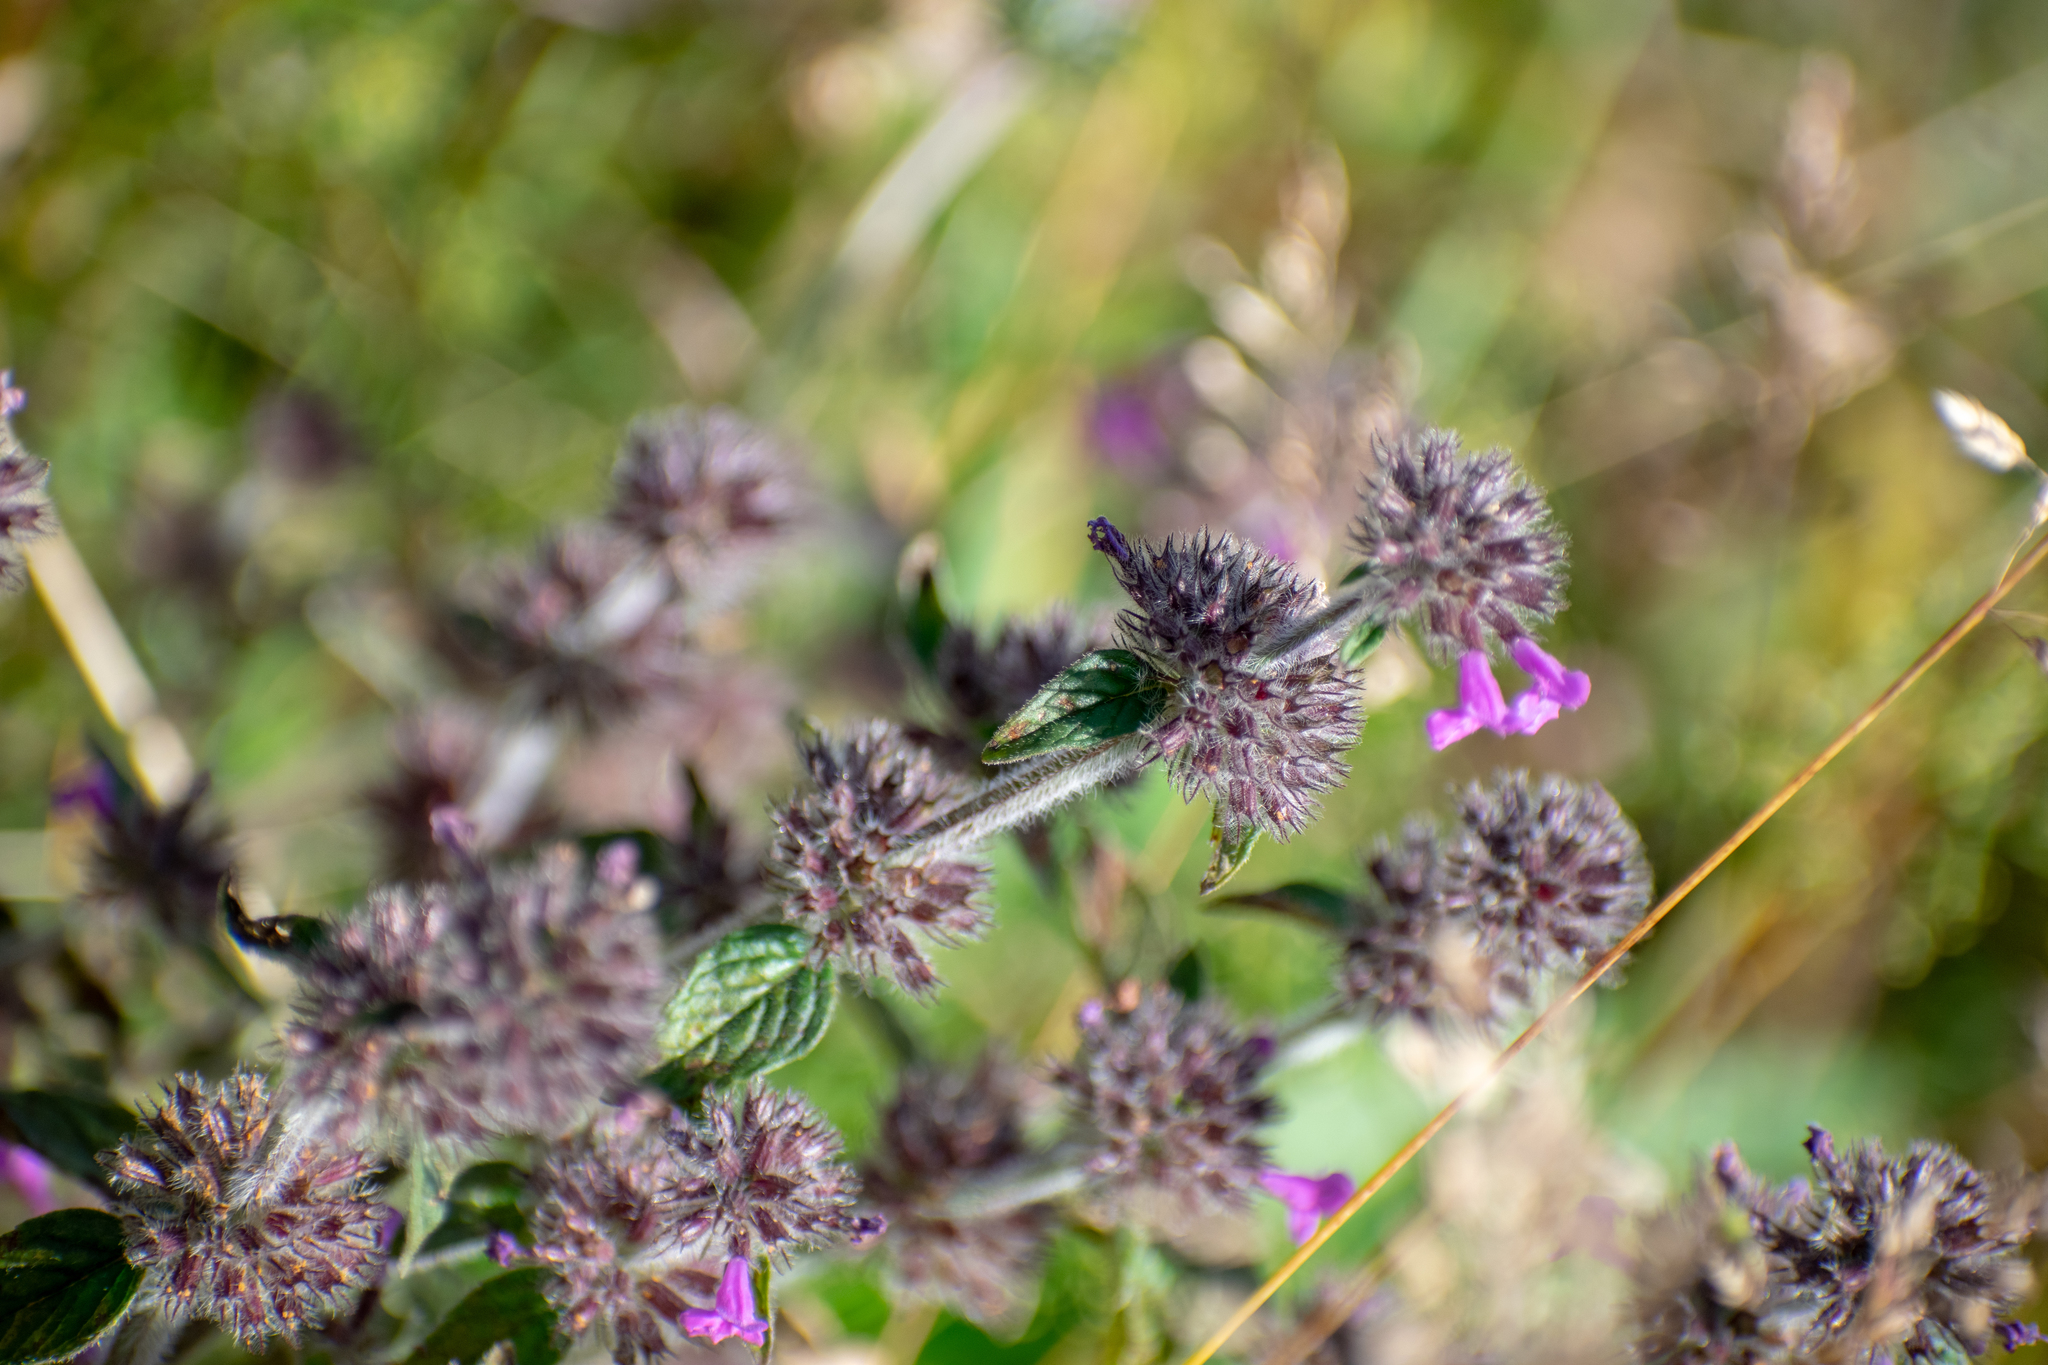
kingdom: Plantae
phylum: Tracheophyta
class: Magnoliopsida
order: Lamiales
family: Lamiaceae
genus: Clinopodium
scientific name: Clinopodium vulgare
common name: Wild basil
